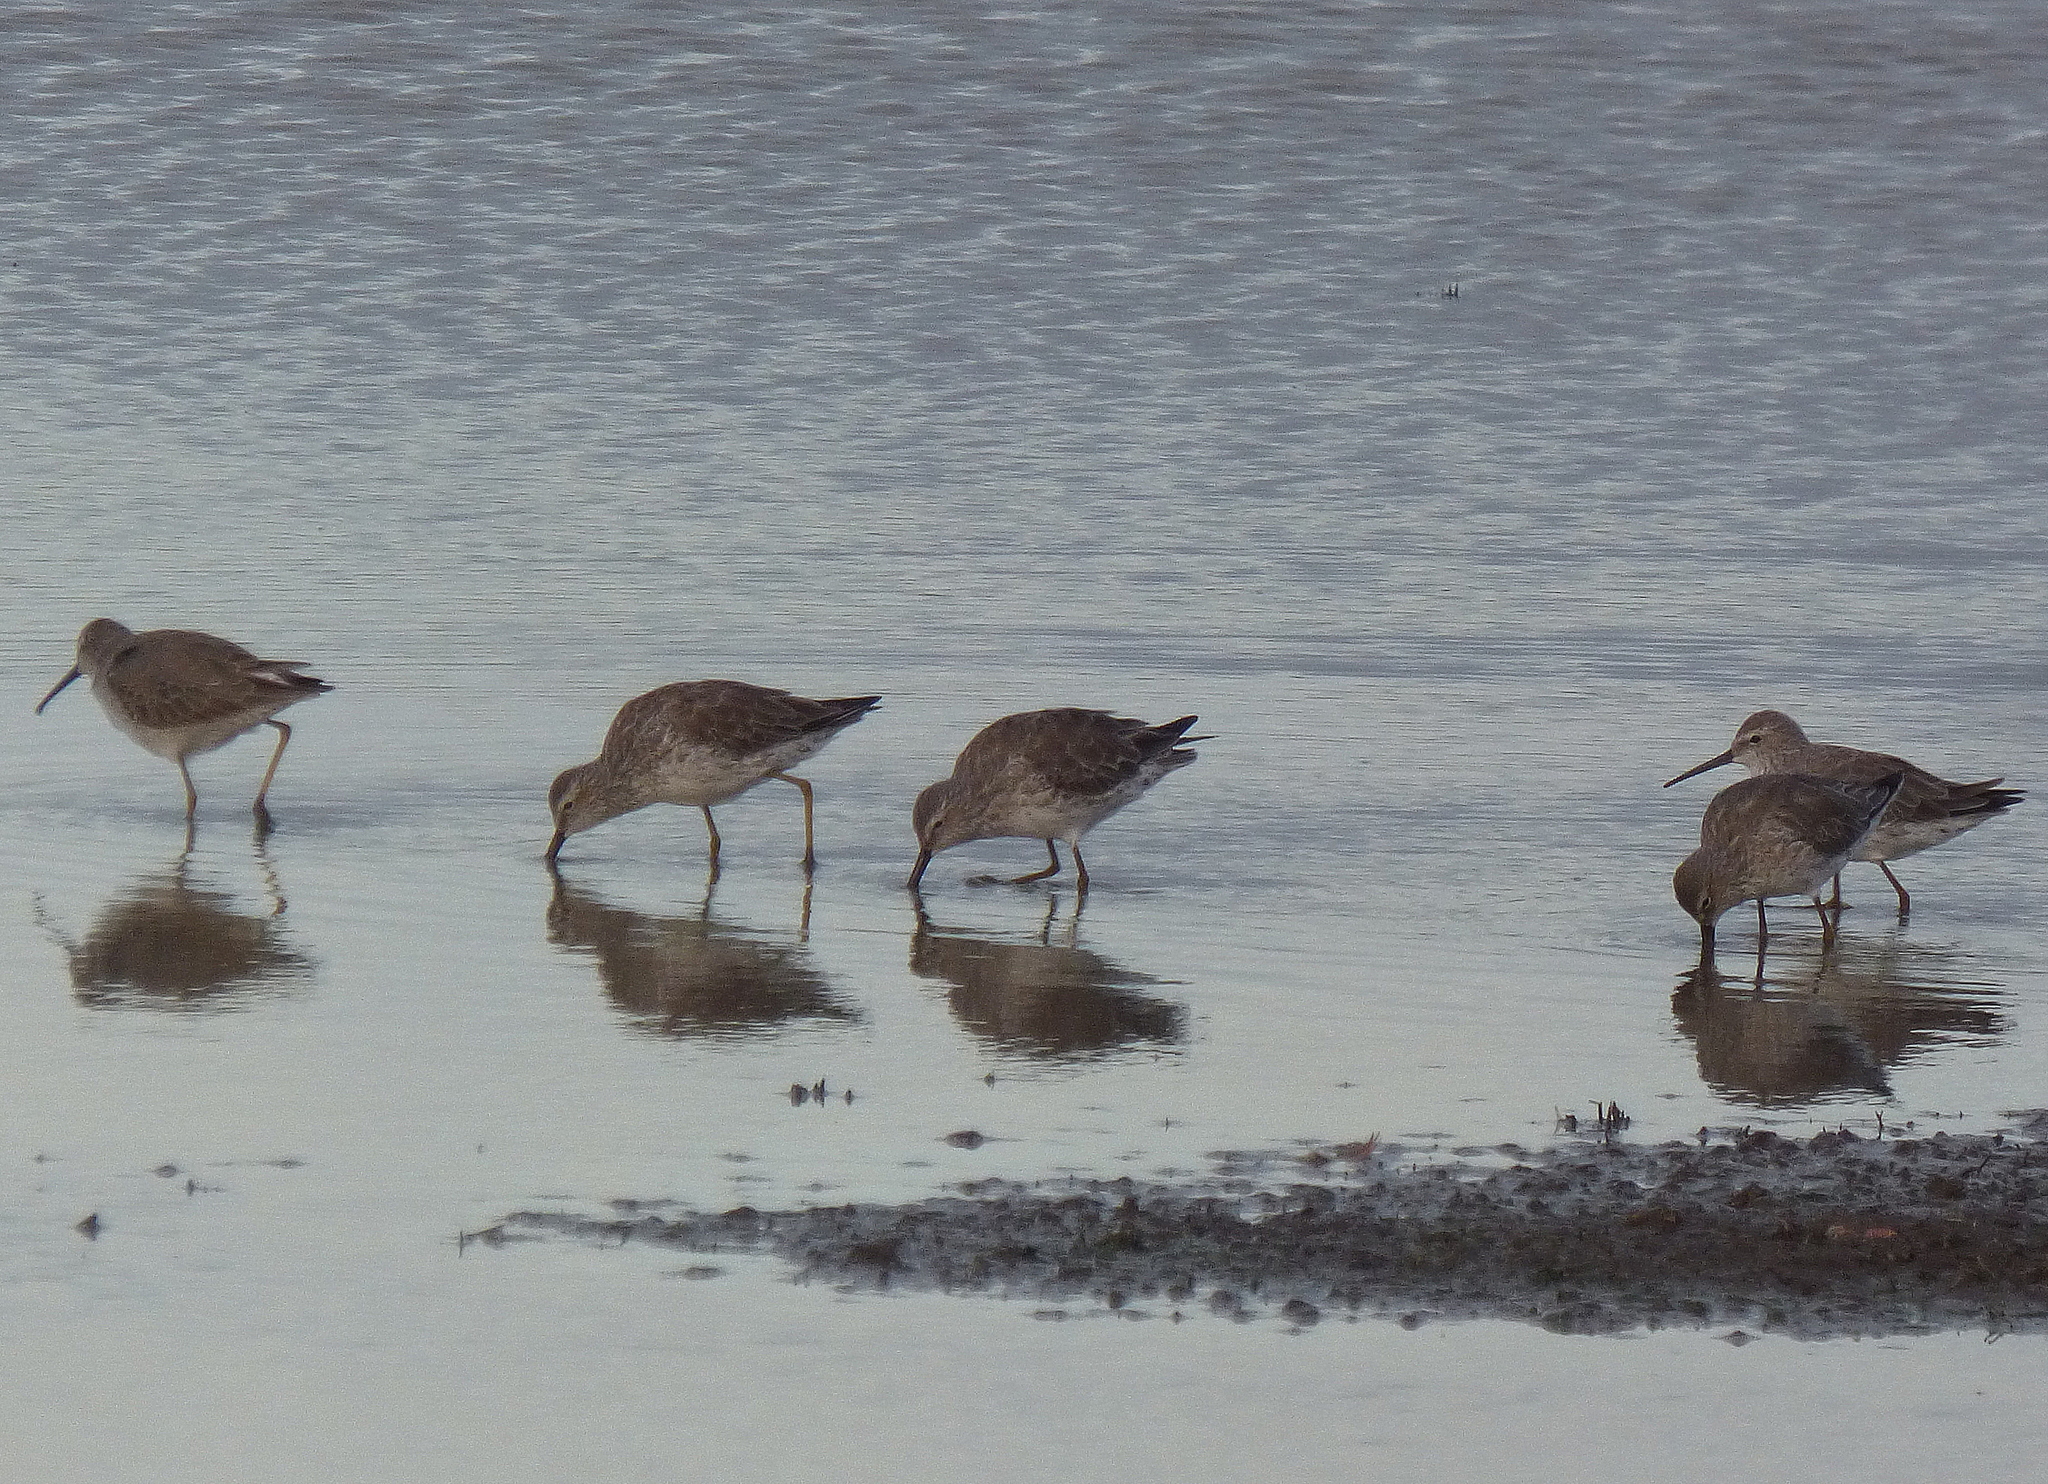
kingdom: Animalia
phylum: Chordata
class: Aves
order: Charadriiformes
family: Scolopacidae
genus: Calidris
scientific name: Calidris himantopus
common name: Stilt sandpiper
